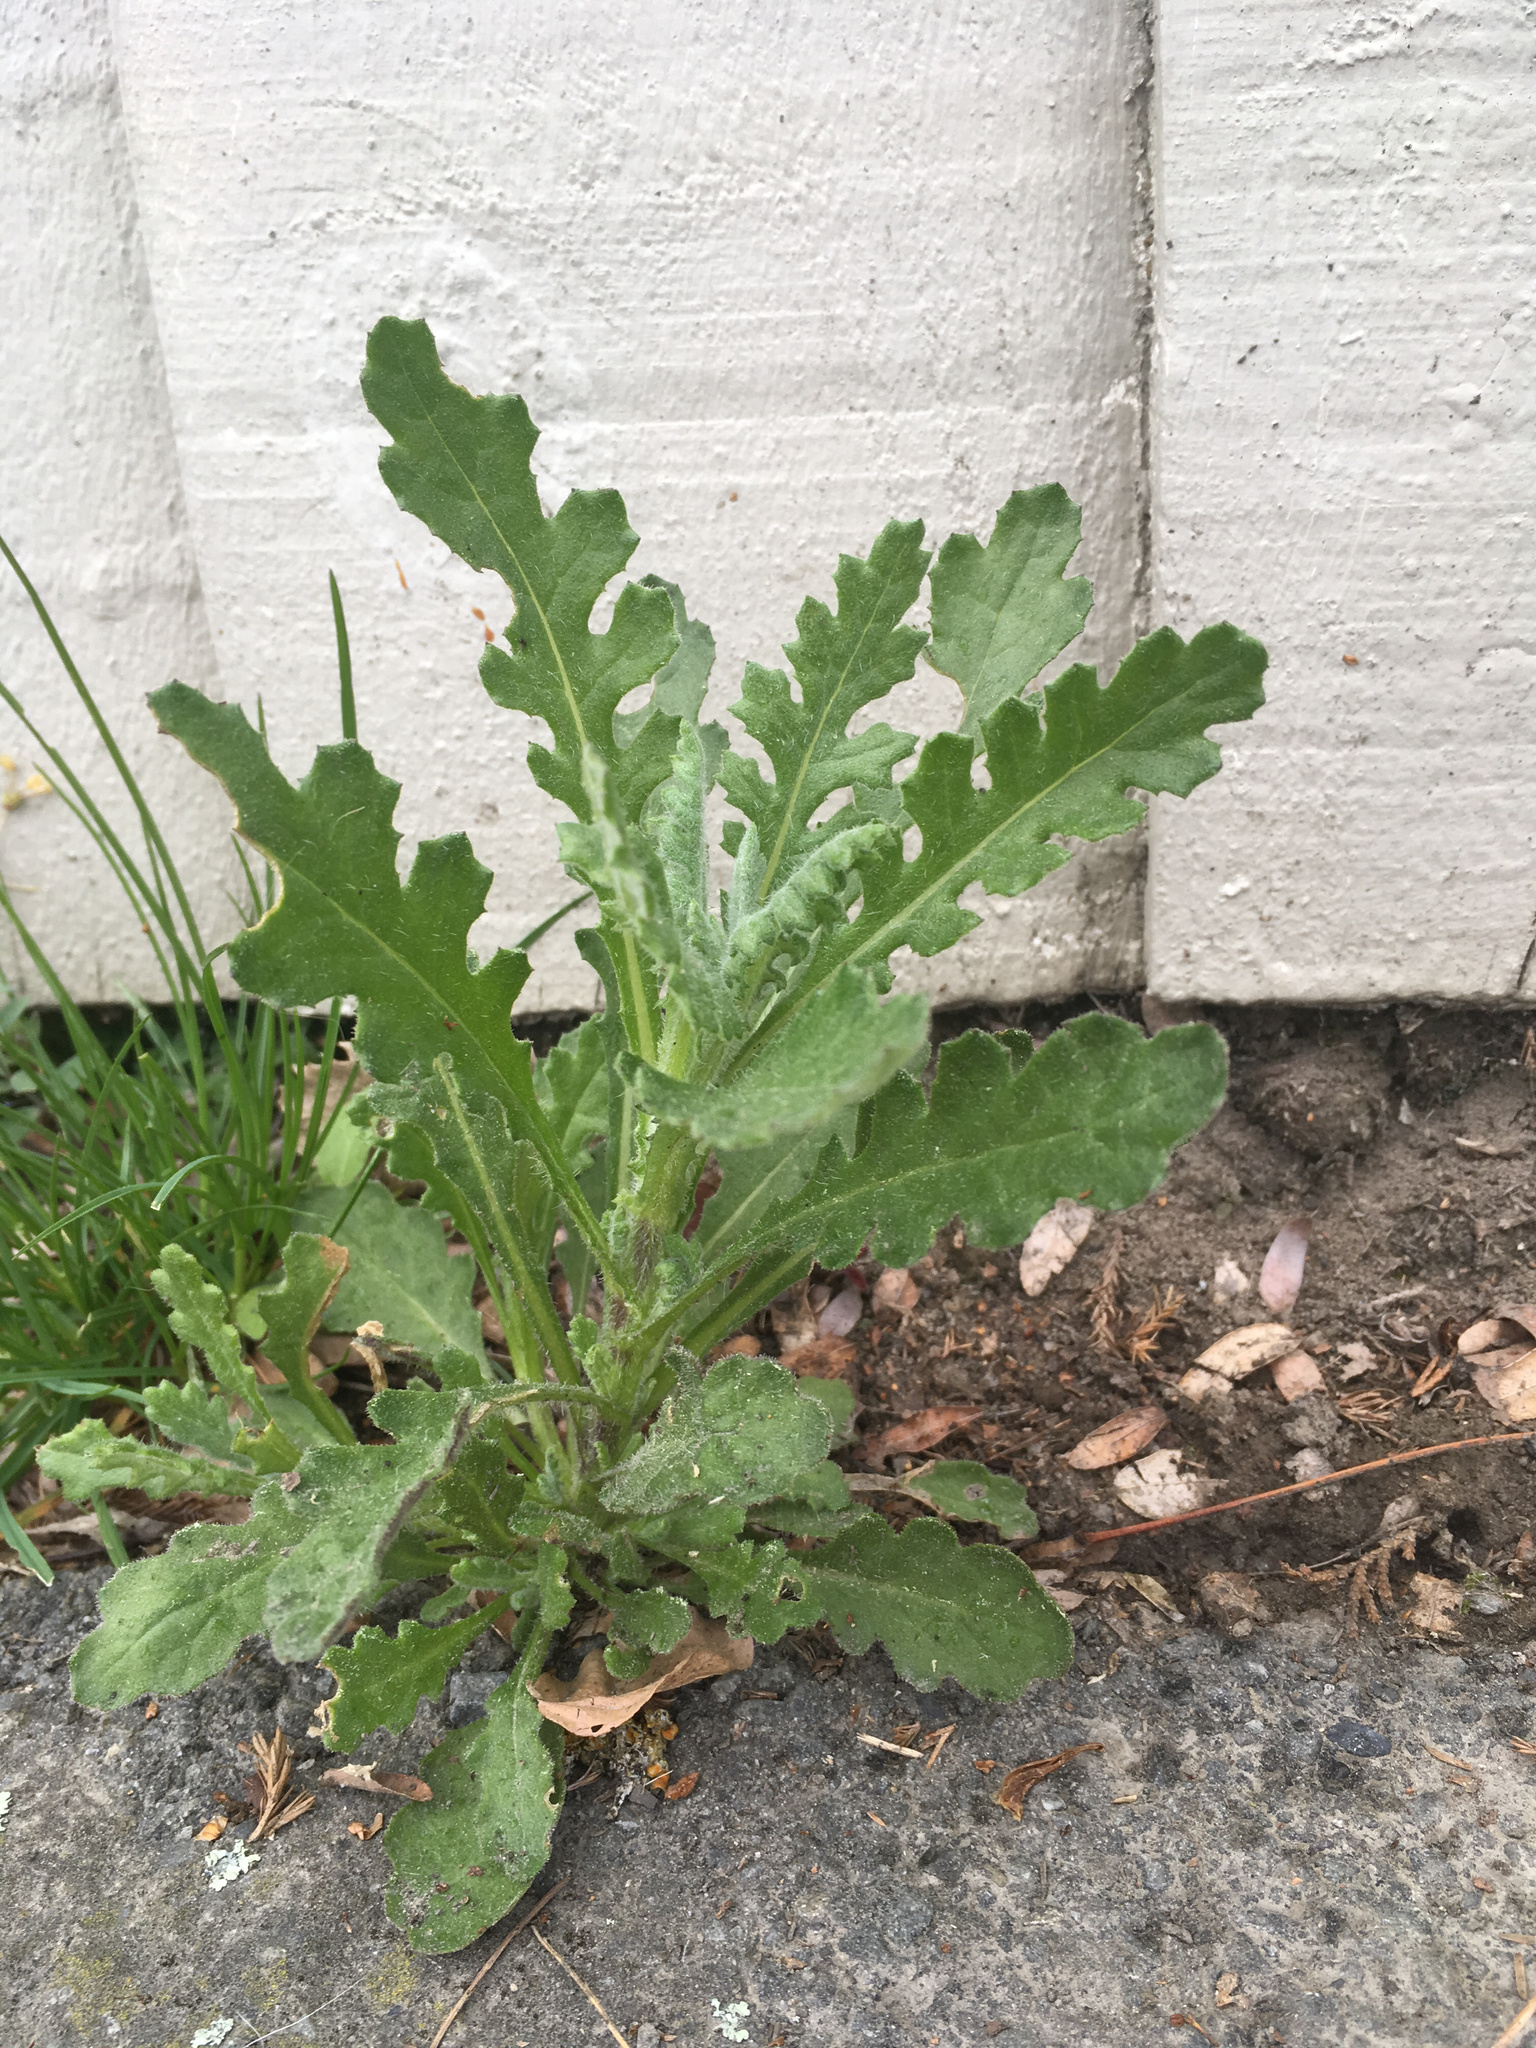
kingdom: Plantae
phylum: Tracheophyta
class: Magnoliopsida
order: Asterales
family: Asteraceae
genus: Senecio
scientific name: Senecio glomeratus
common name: Cutleaf burnweed
